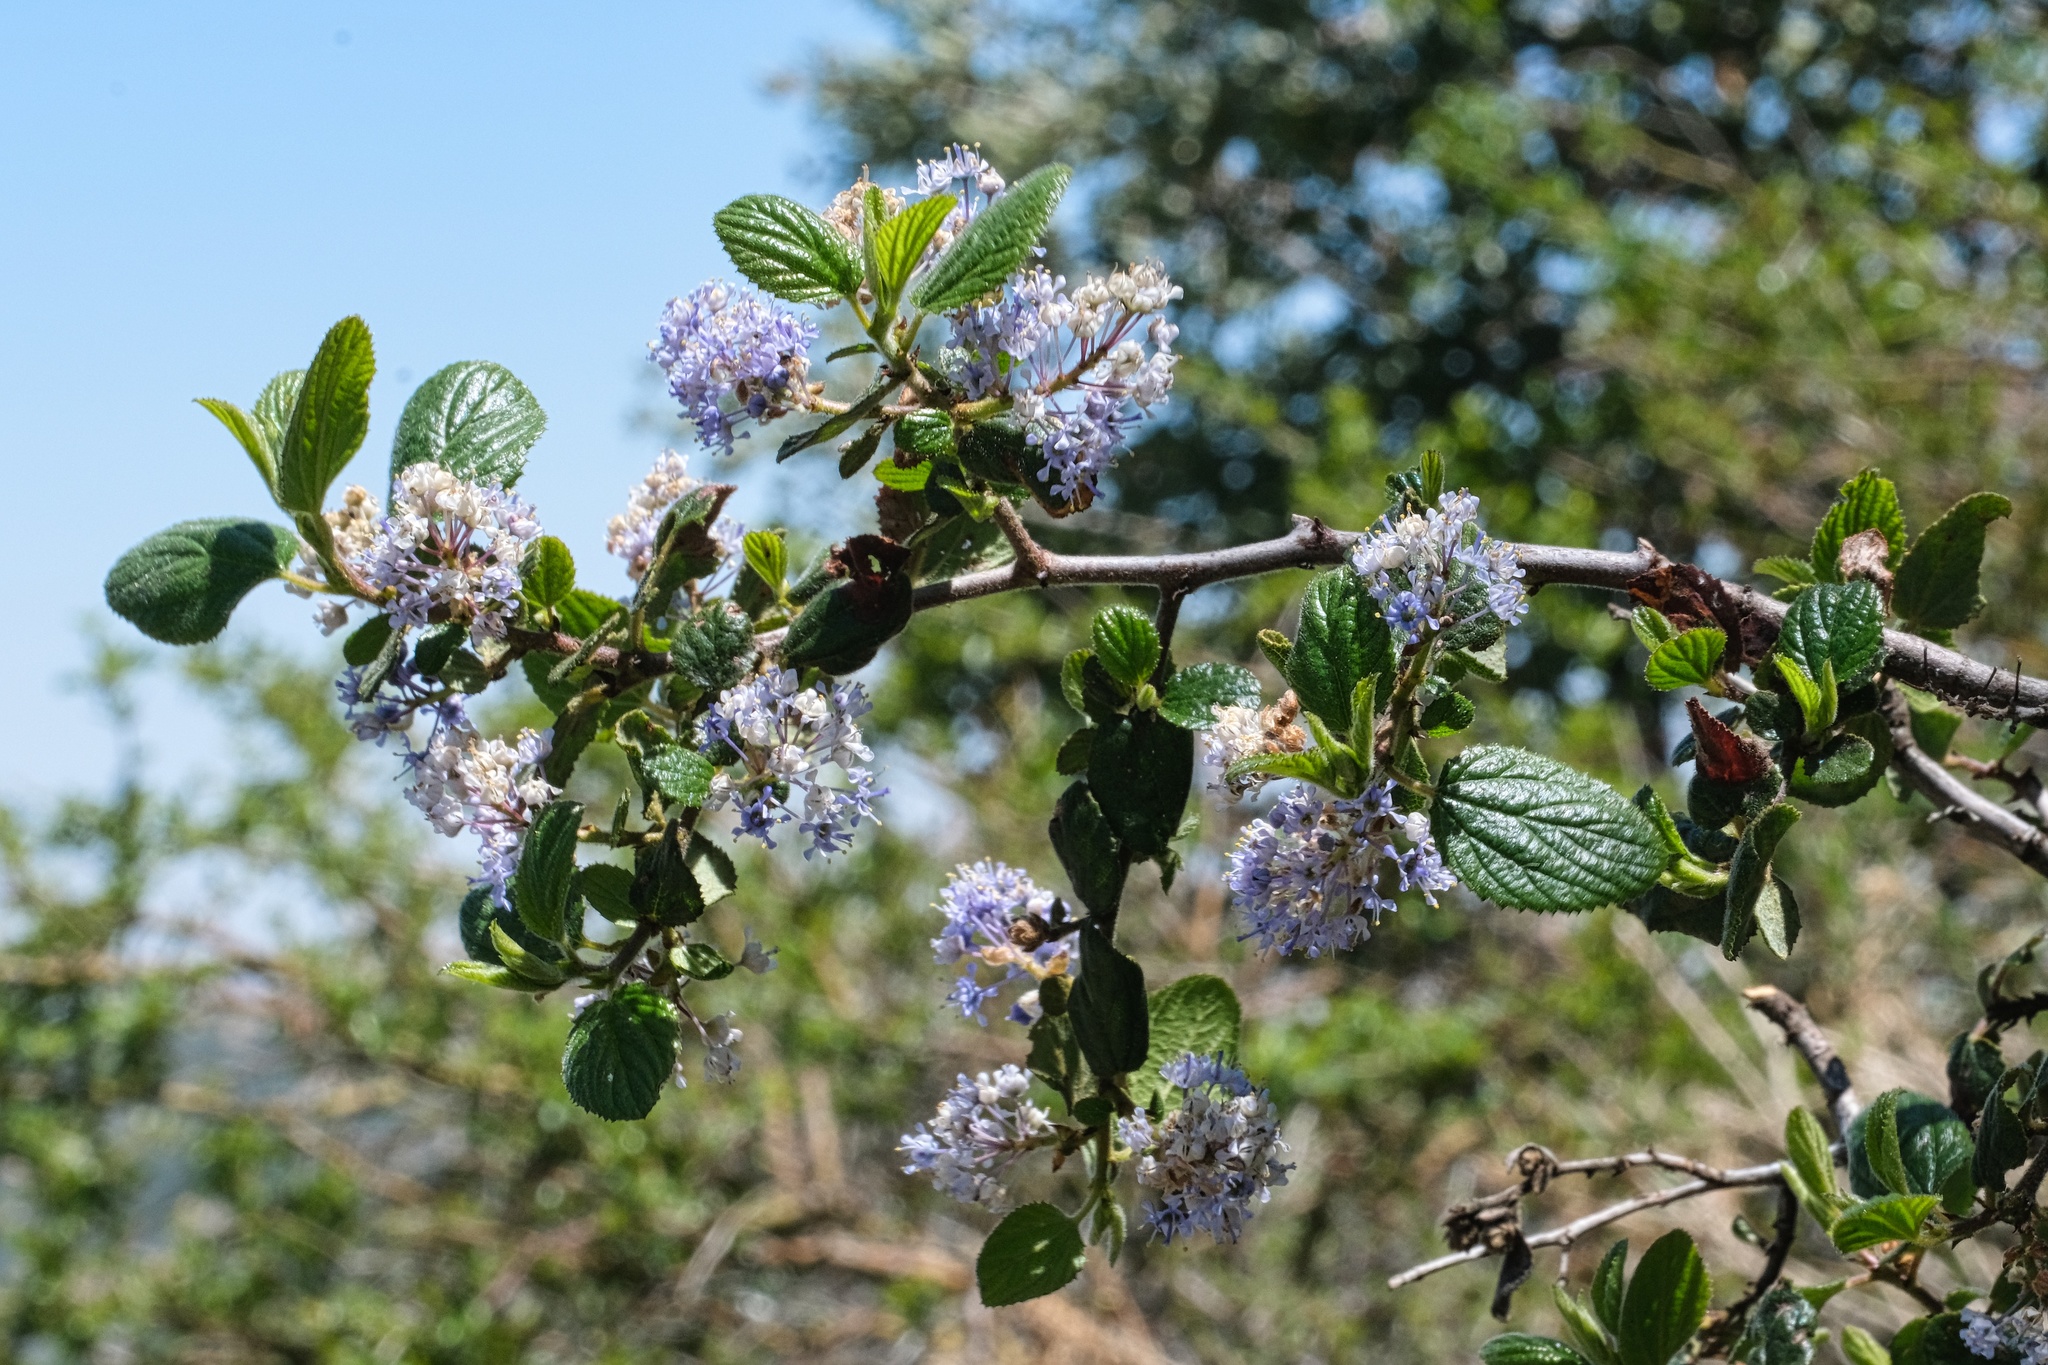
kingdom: Plantae
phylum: Tracheophyta
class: Magnoliopsida
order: Rosales
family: Rhamnaceae
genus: Ceanothus
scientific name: Ceanothus oliganthus
